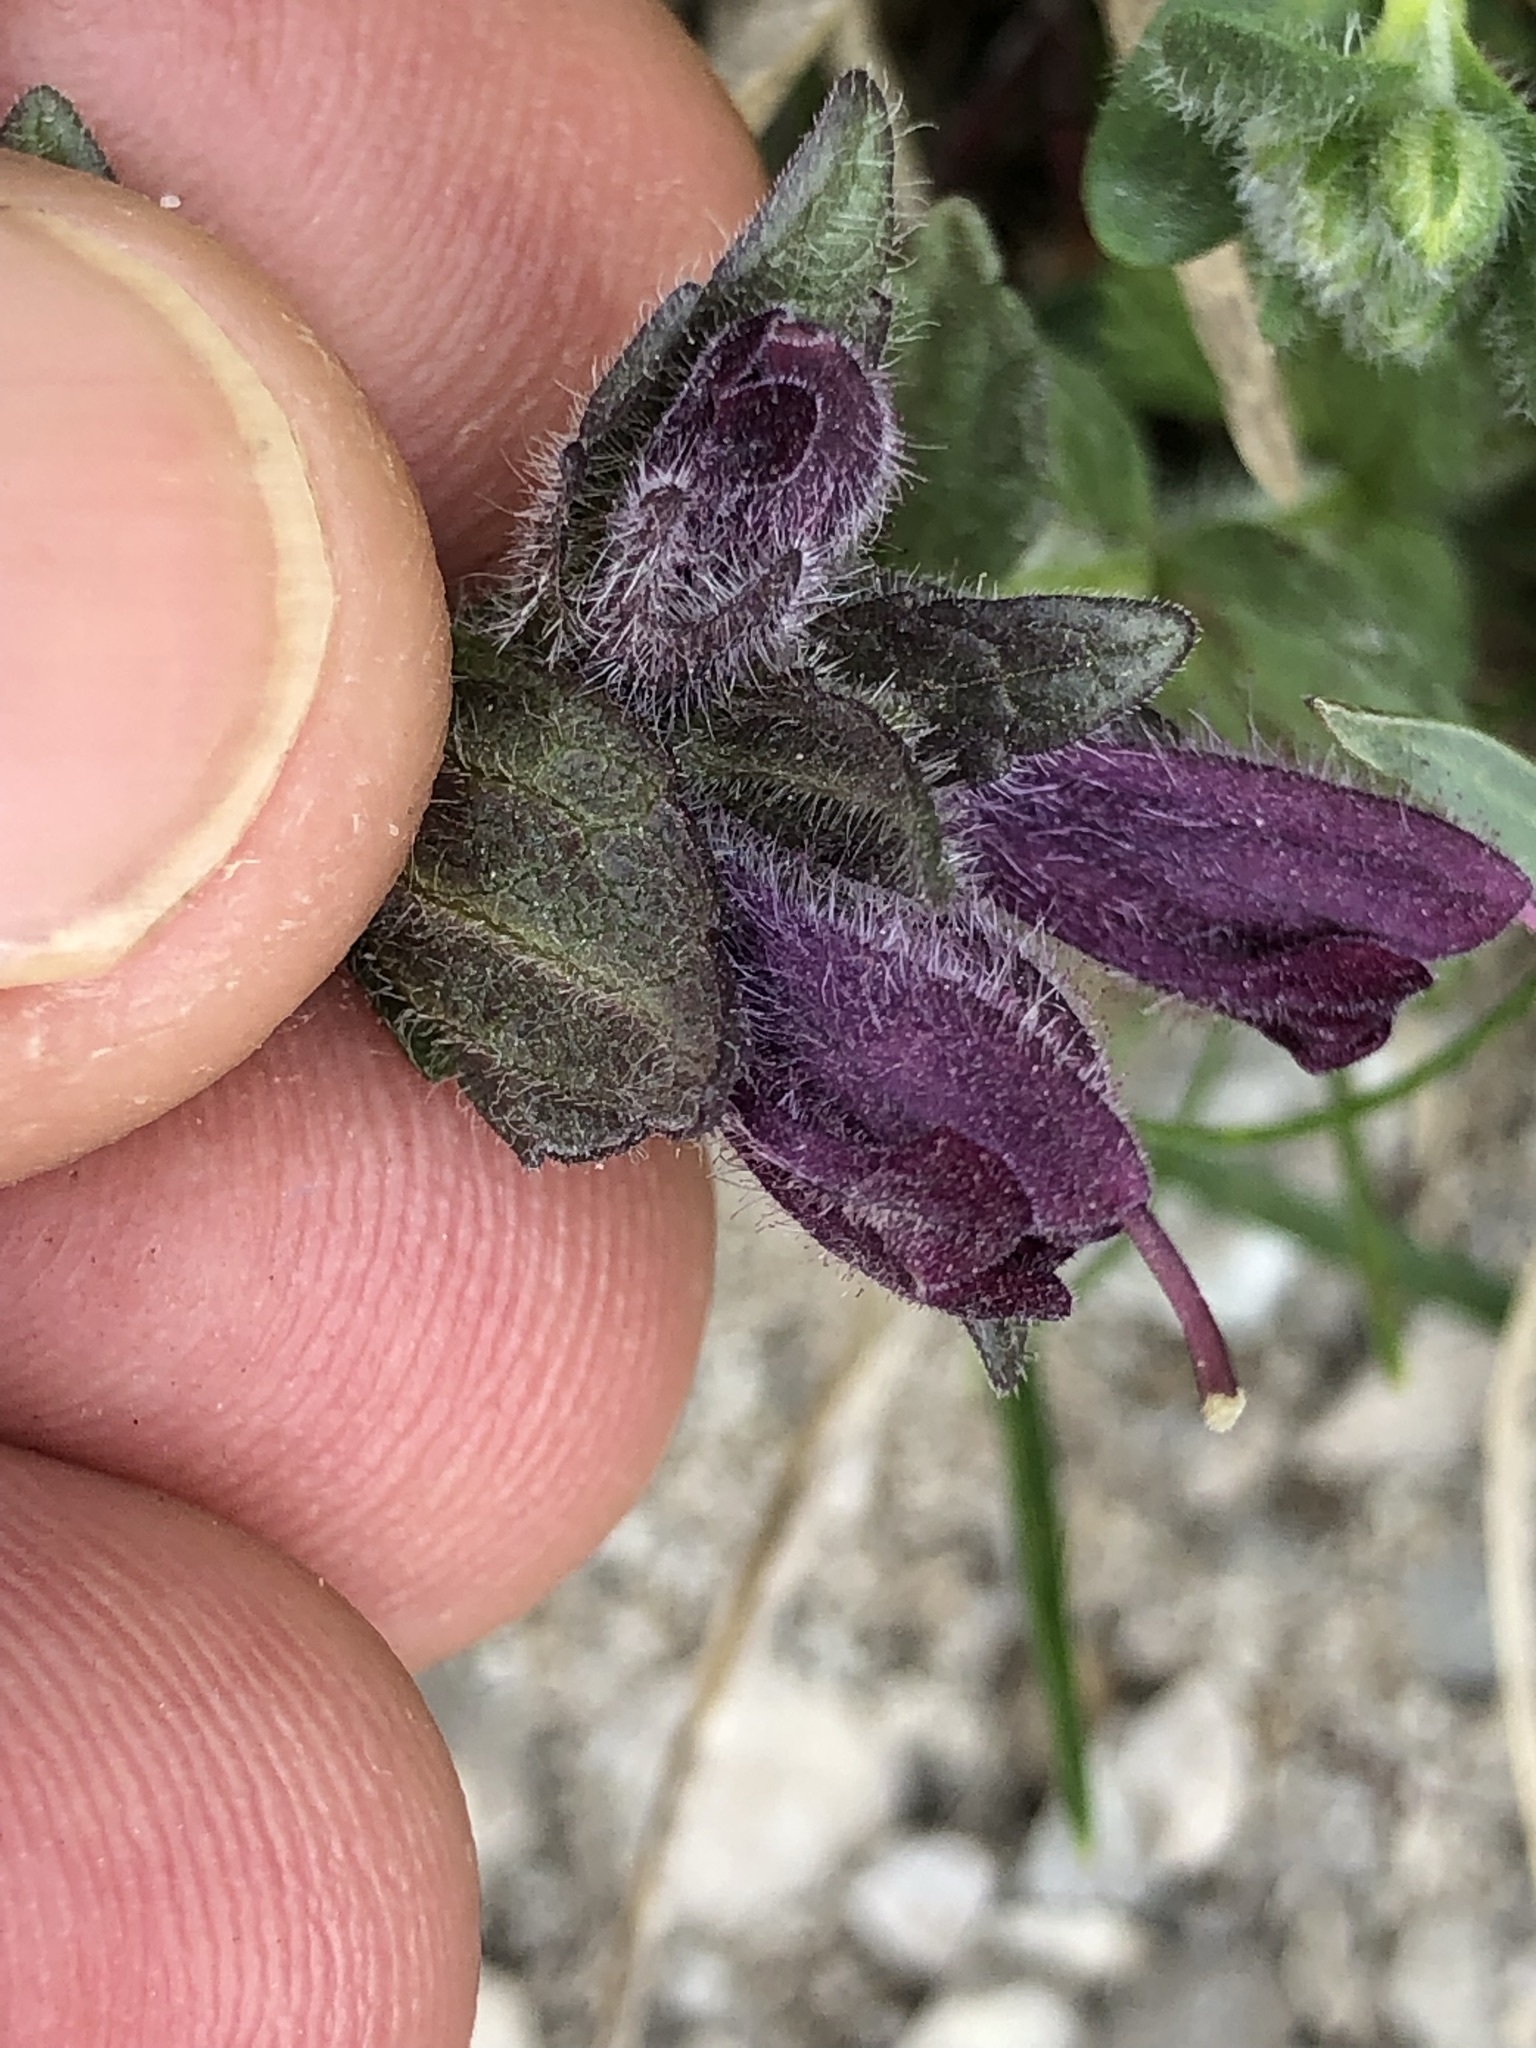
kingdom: Plantae
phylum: Tracheophyta
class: Magnoliopsida
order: Lamiales
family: Orobanchaceae
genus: Bartsia
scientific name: Bartsia alpina
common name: Alpine bartsia
